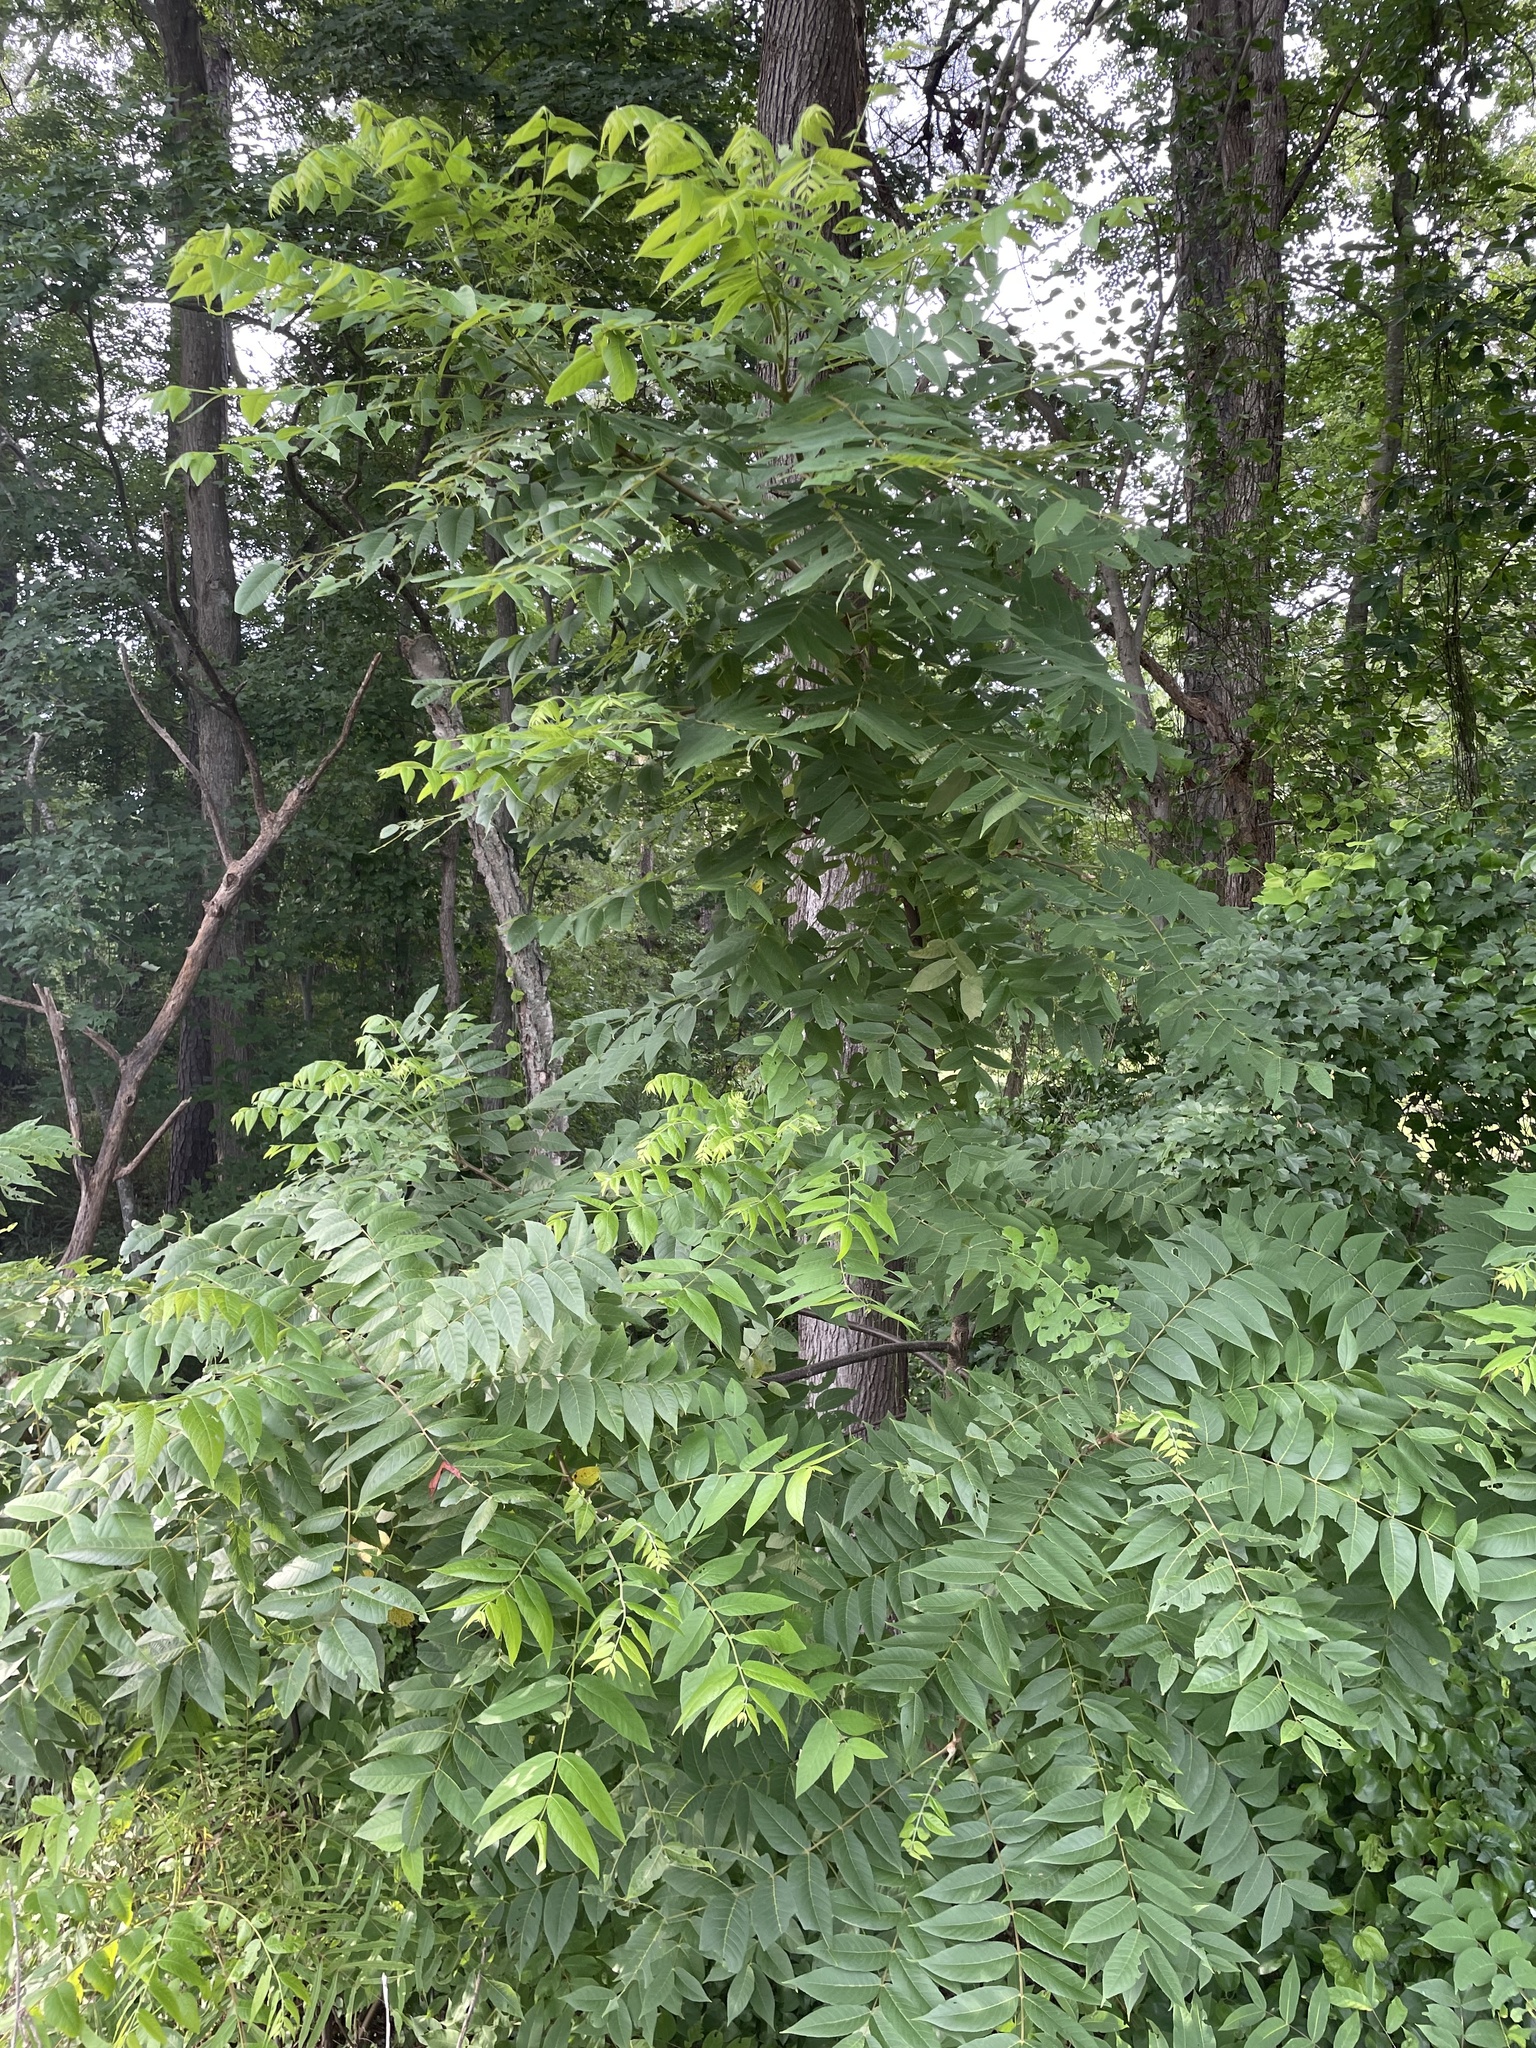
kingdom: Plantae
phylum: Tracheophyta
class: Magnoliopsida
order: Sapindales
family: Simaroubaceae
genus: Ailanthus
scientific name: Ailanthus altissima
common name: Tree-of-heaven
